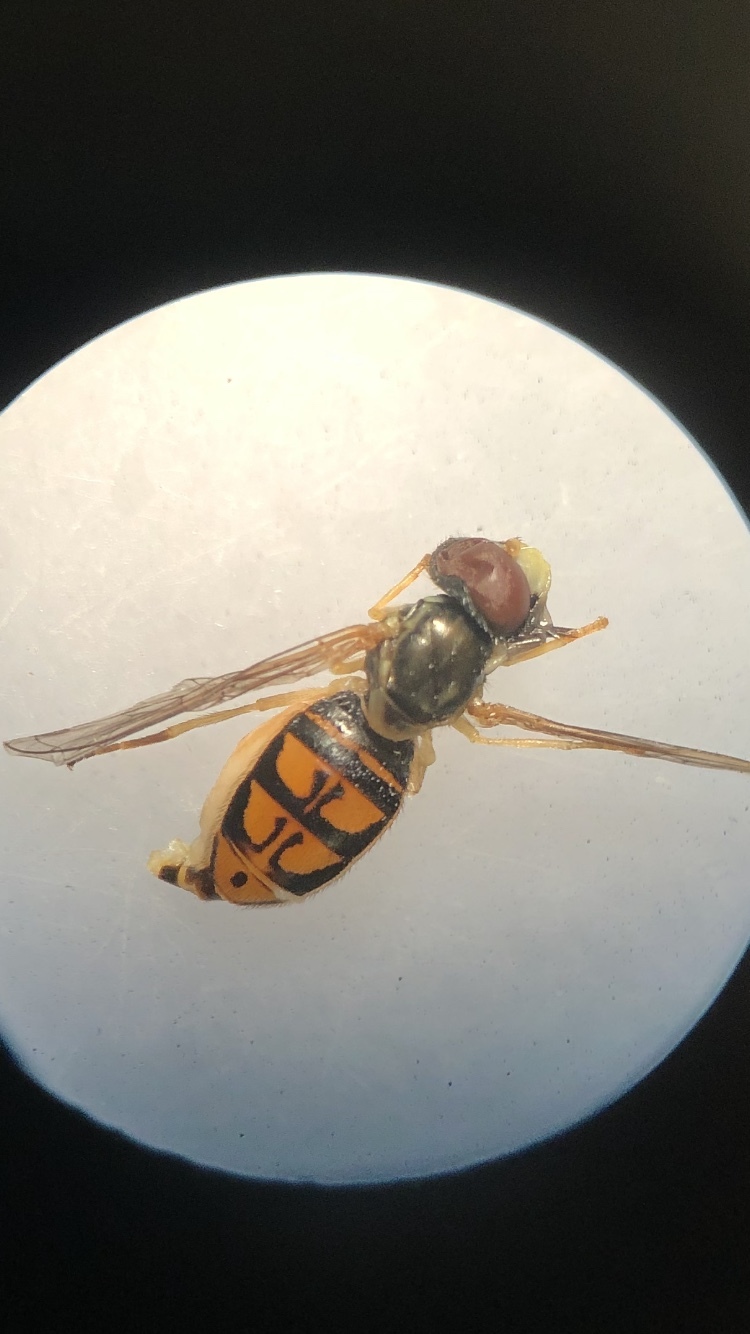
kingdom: Animalia
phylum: Arthropoda
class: Insecta
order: Diptera
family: Syrphidae
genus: Toxomerus
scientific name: Toxomerus marginatus
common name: Syrphid fly
